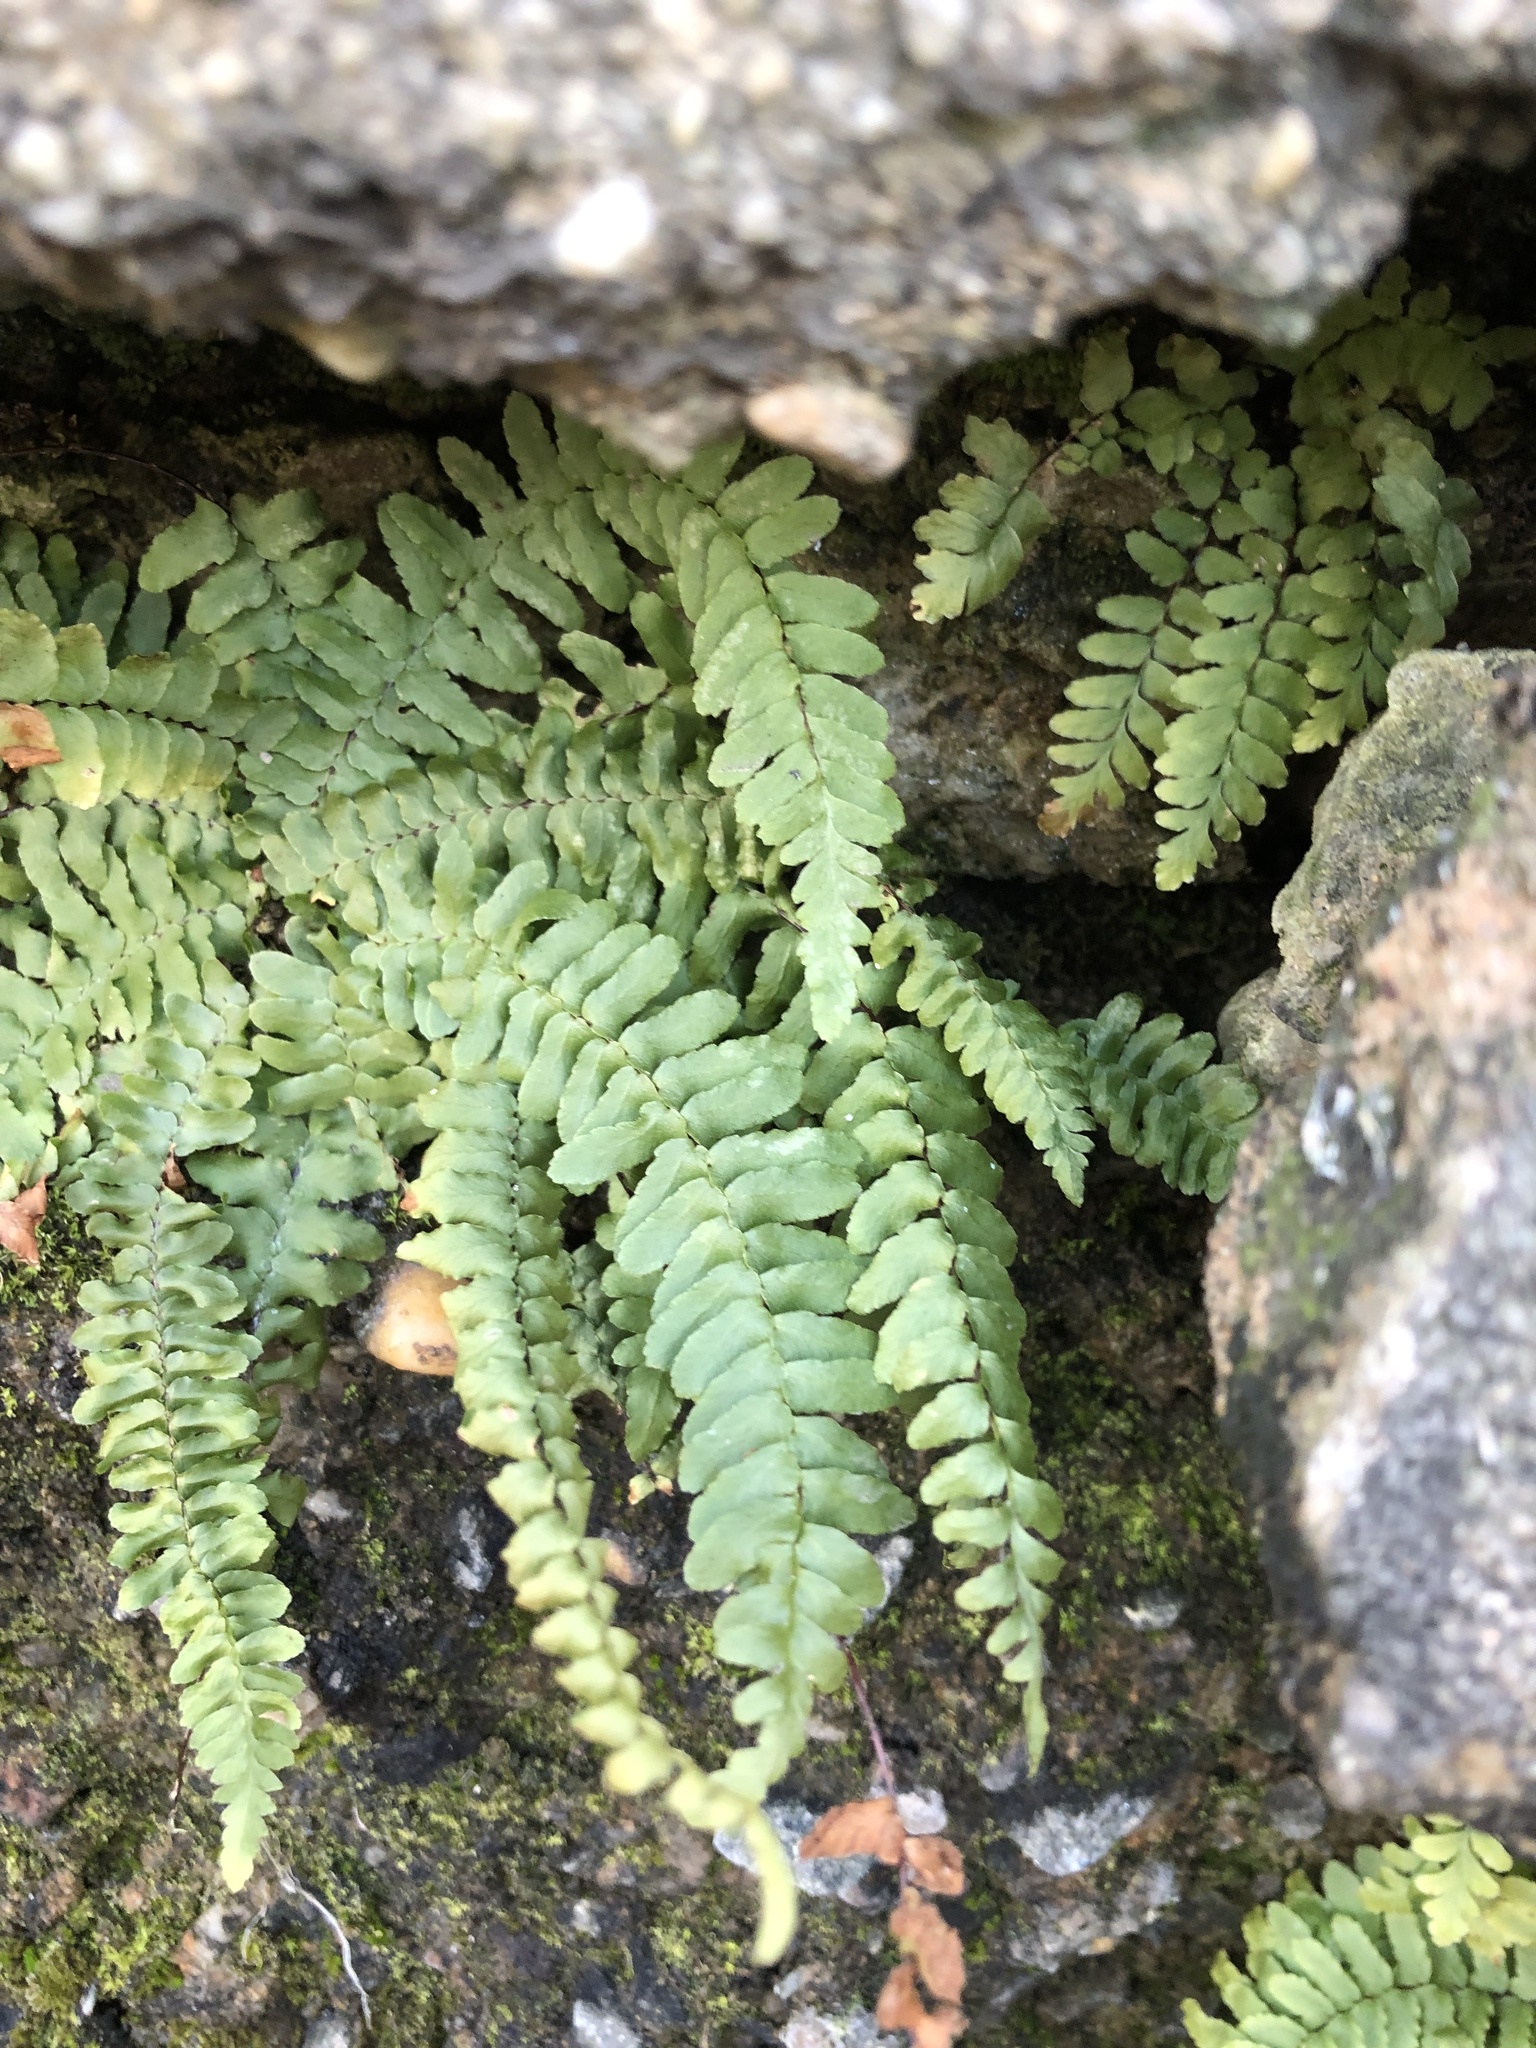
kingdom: Plantae
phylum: Tracheophyta
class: Polypodiopsida
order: Polypodiales
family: Aspleniaceae
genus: Asplenium
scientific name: Asplenium platyneuron
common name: Ebony spleenwort
